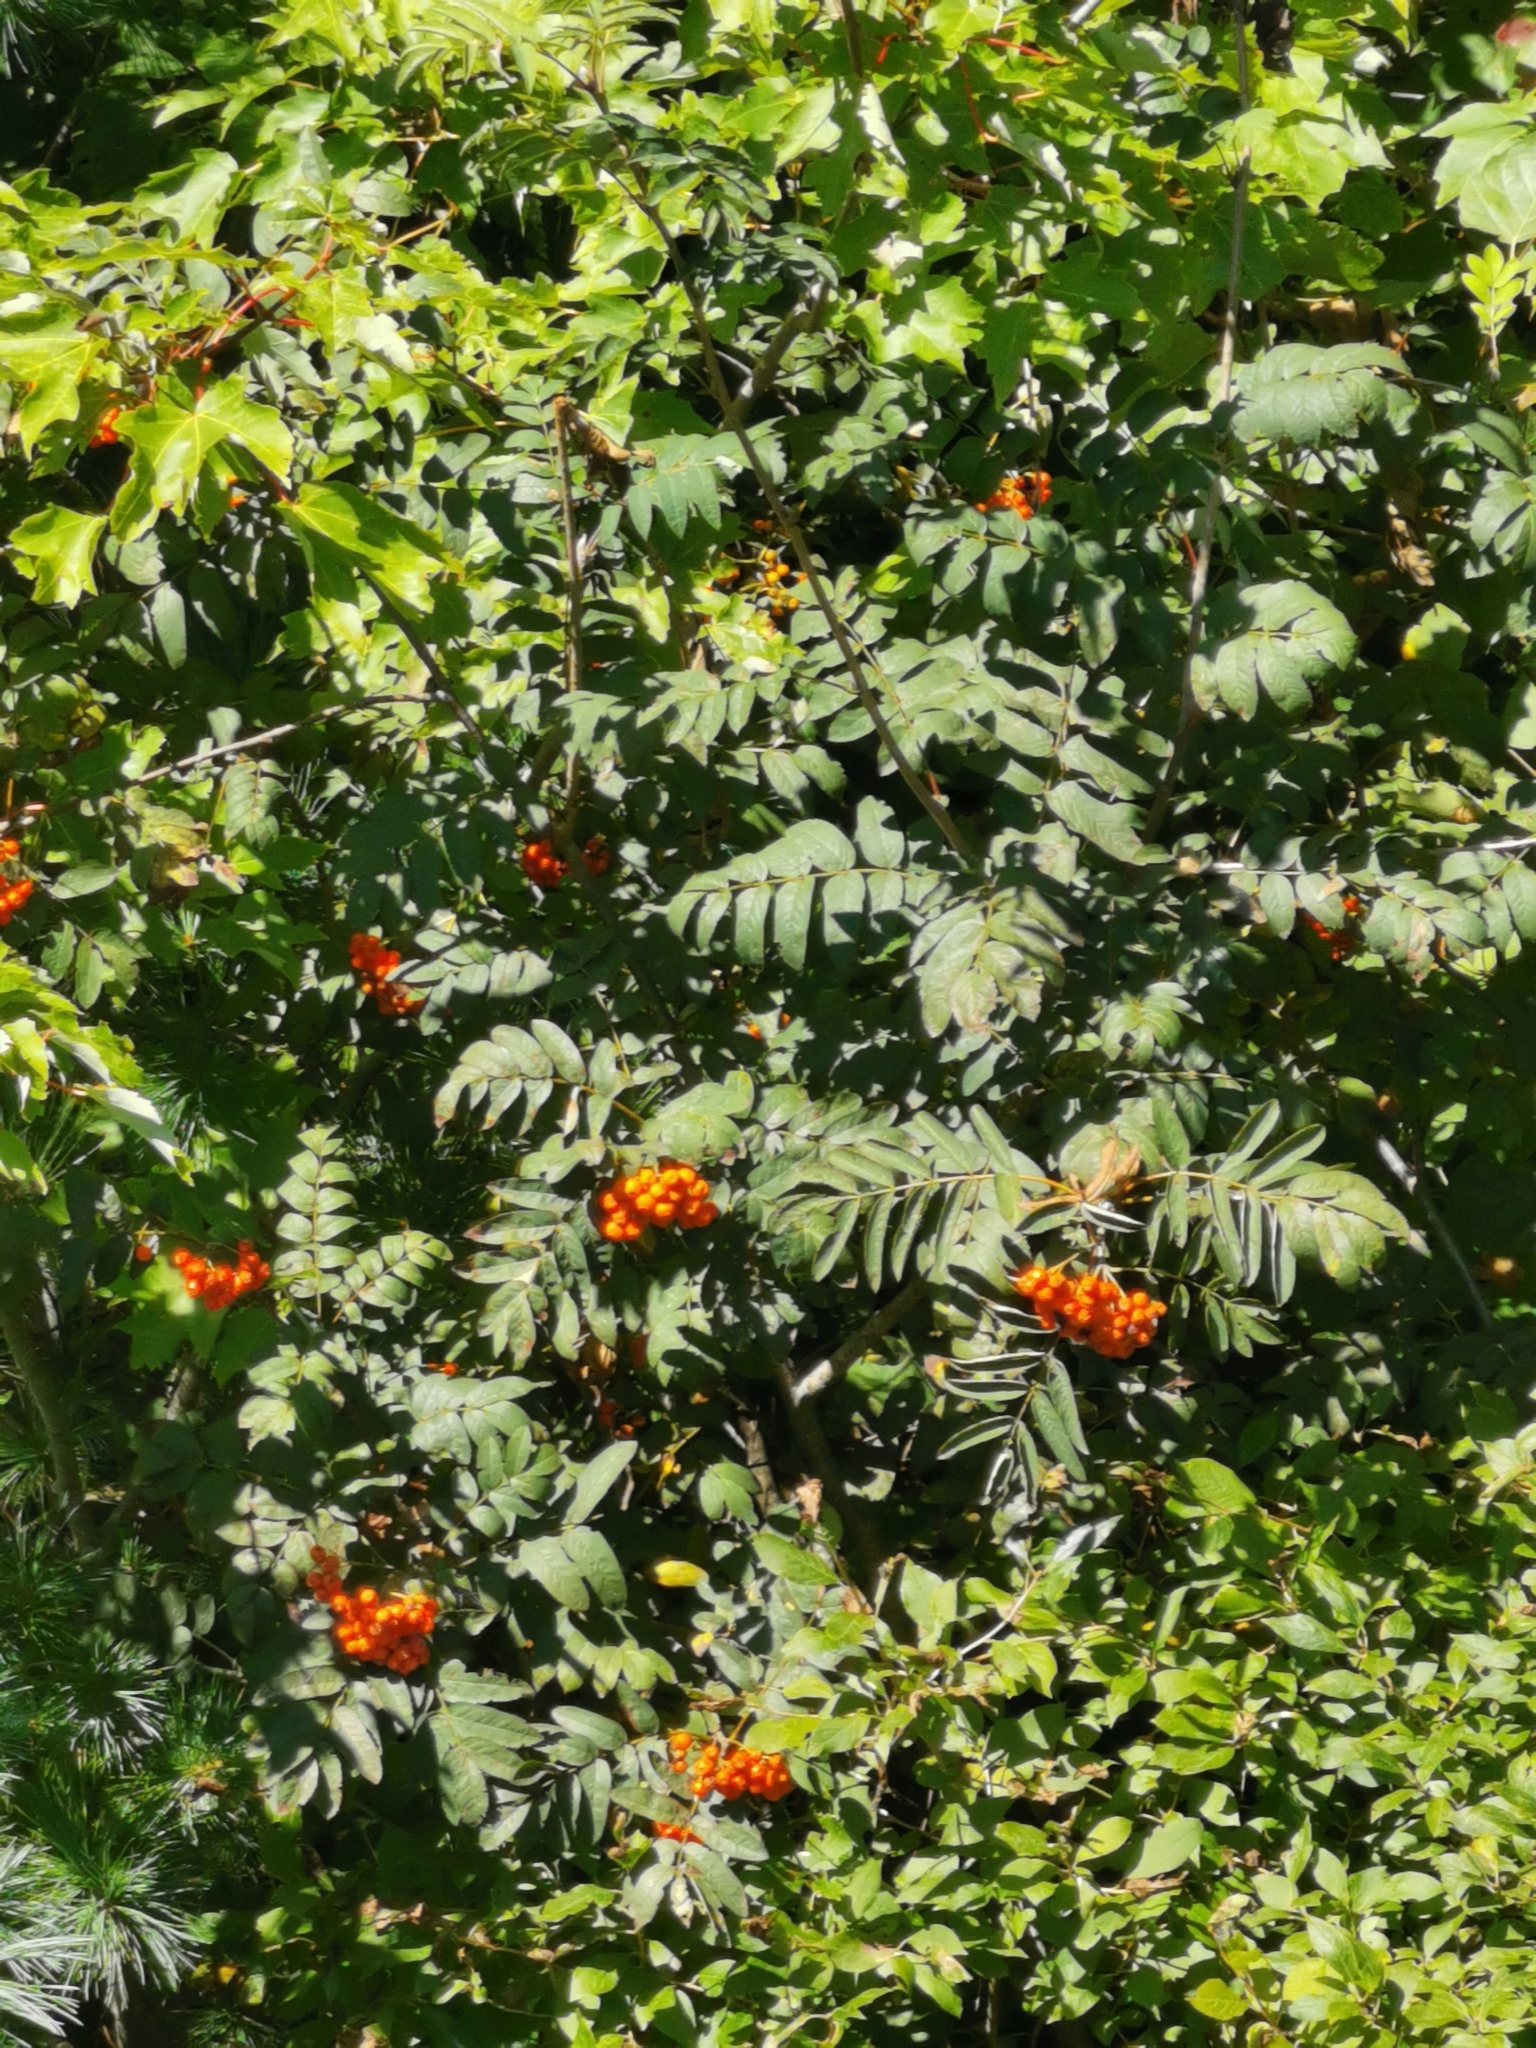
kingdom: Plantae
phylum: Tracheophyta
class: Magnoliopsida
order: Rosales
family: Rosaceae
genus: Sorbus
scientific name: Sorbus aucuparia
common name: Rowan
